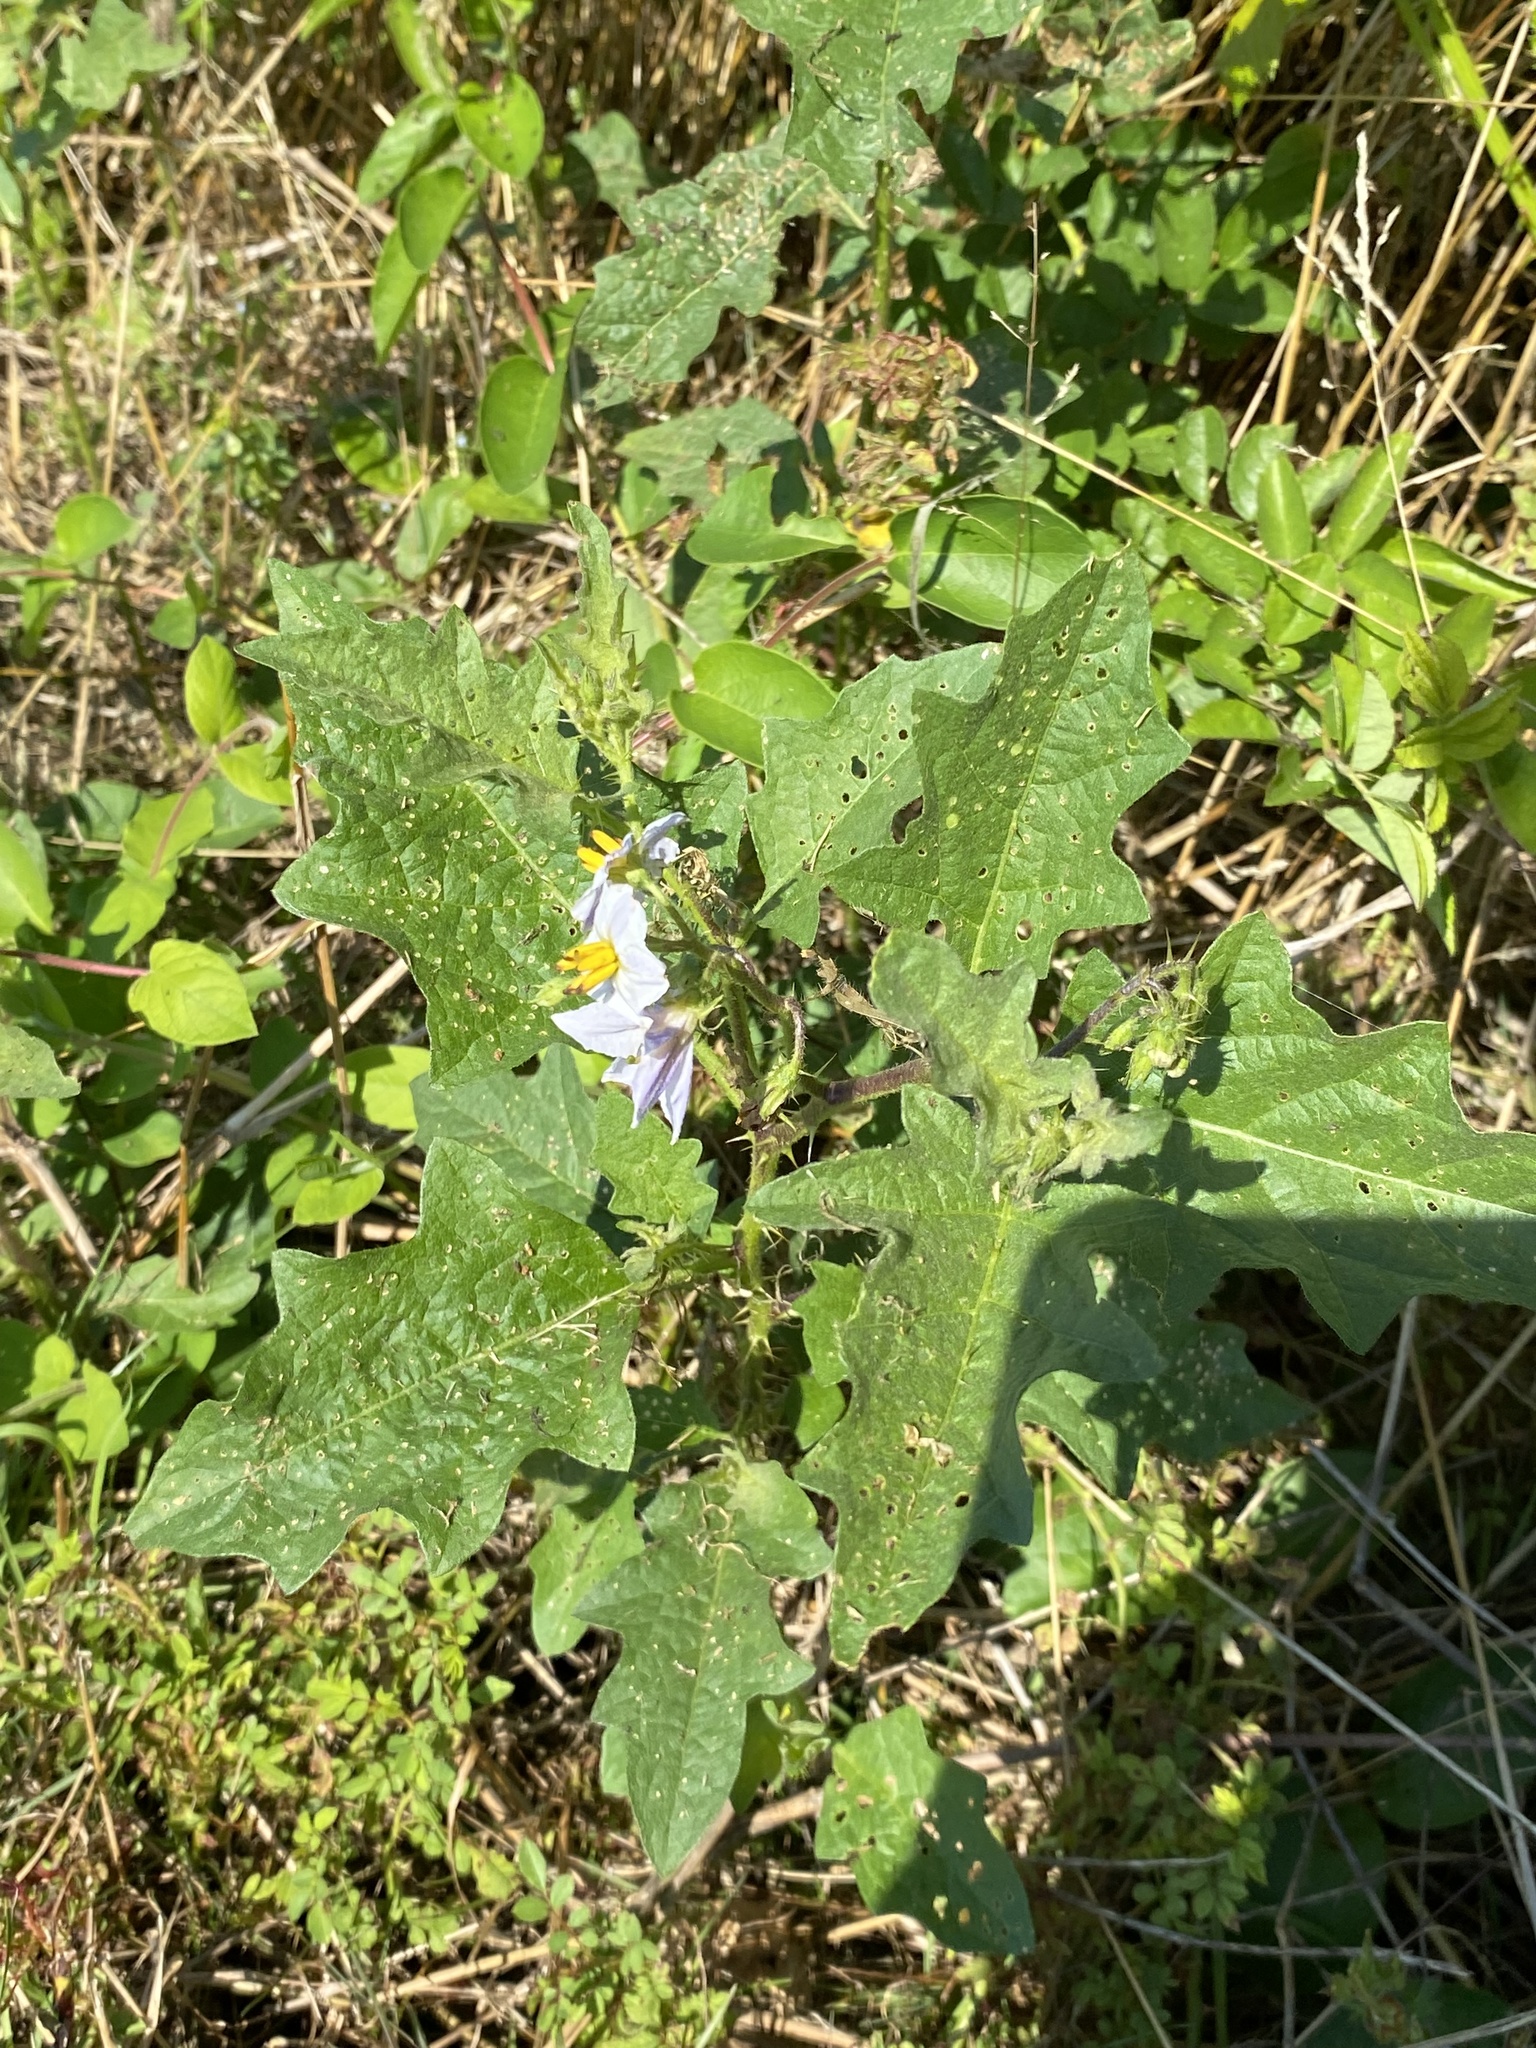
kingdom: Plantae
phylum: Tracheophyta
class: Magnoliopsida
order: Solanales
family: Solanaceae
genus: Solanum
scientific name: Solanum carolinense
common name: Horse-nettle
